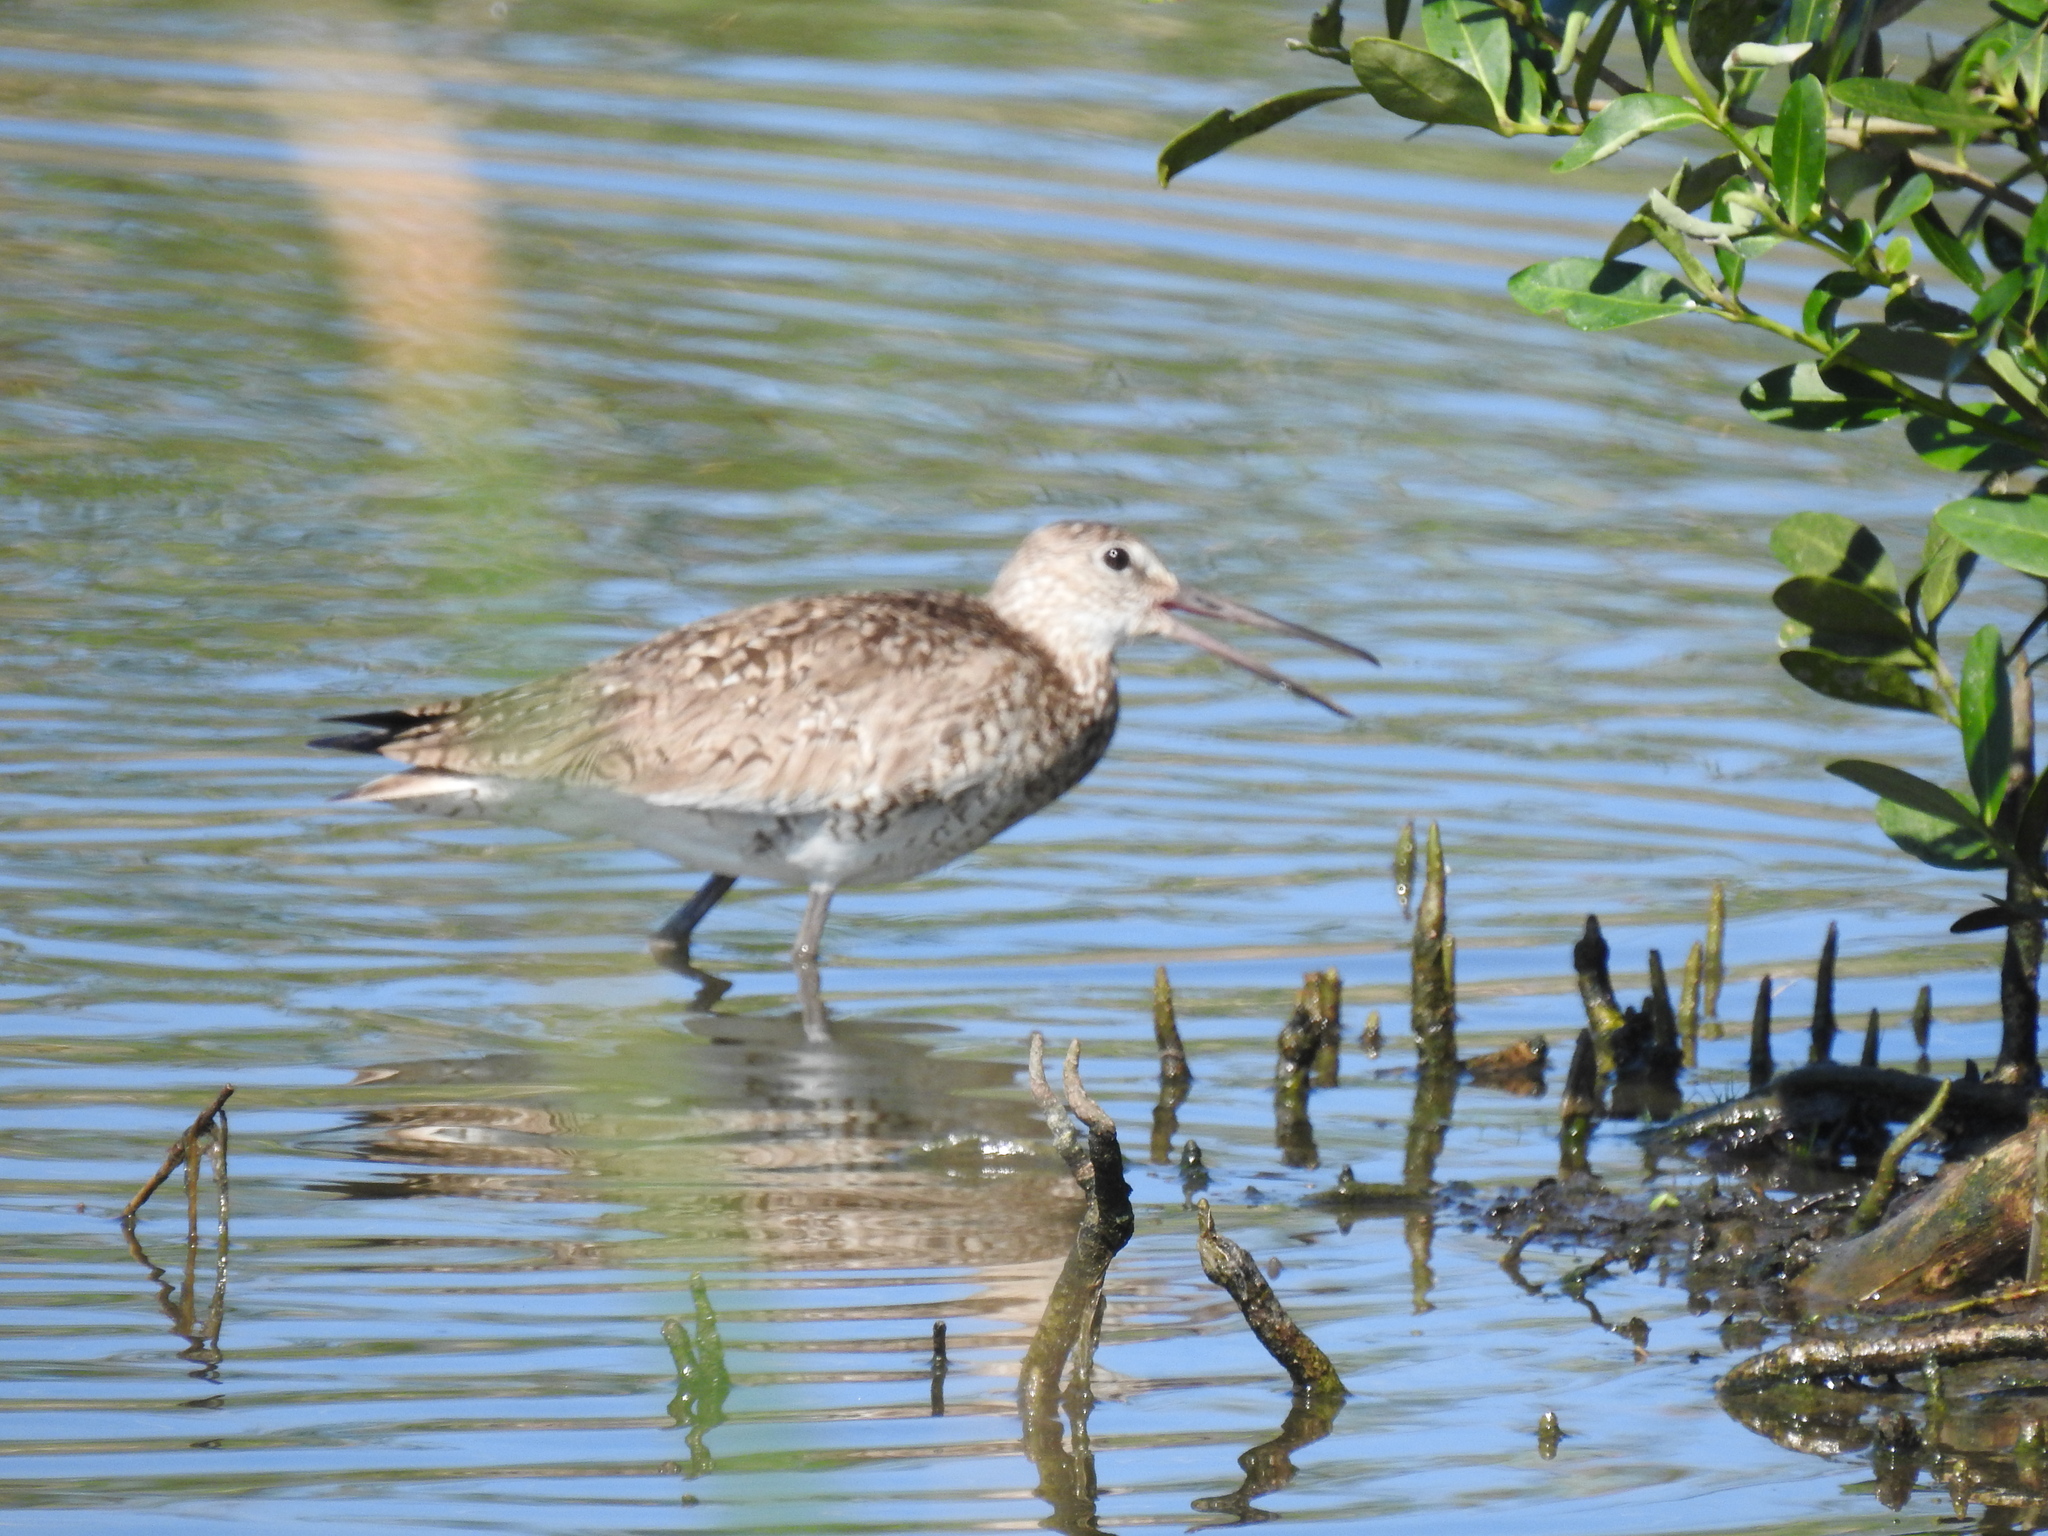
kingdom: Animalia
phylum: Chordata
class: Aves
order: Charadriiformes
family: Scolopacidae
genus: Tringa
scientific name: Tringa semipalmata
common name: Willet
